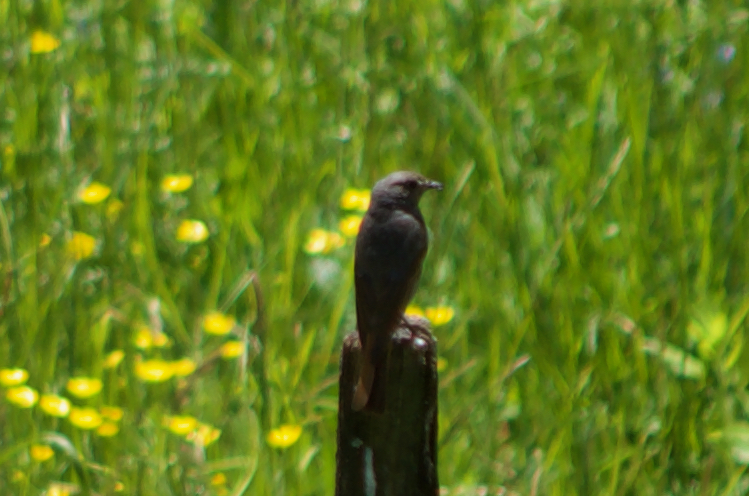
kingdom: Animalia
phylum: Chordata
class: Aves
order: Passeriformes
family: Muscicapidae
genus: Phoenicurus
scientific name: Phoenicurus ochruros
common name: Black redstart
